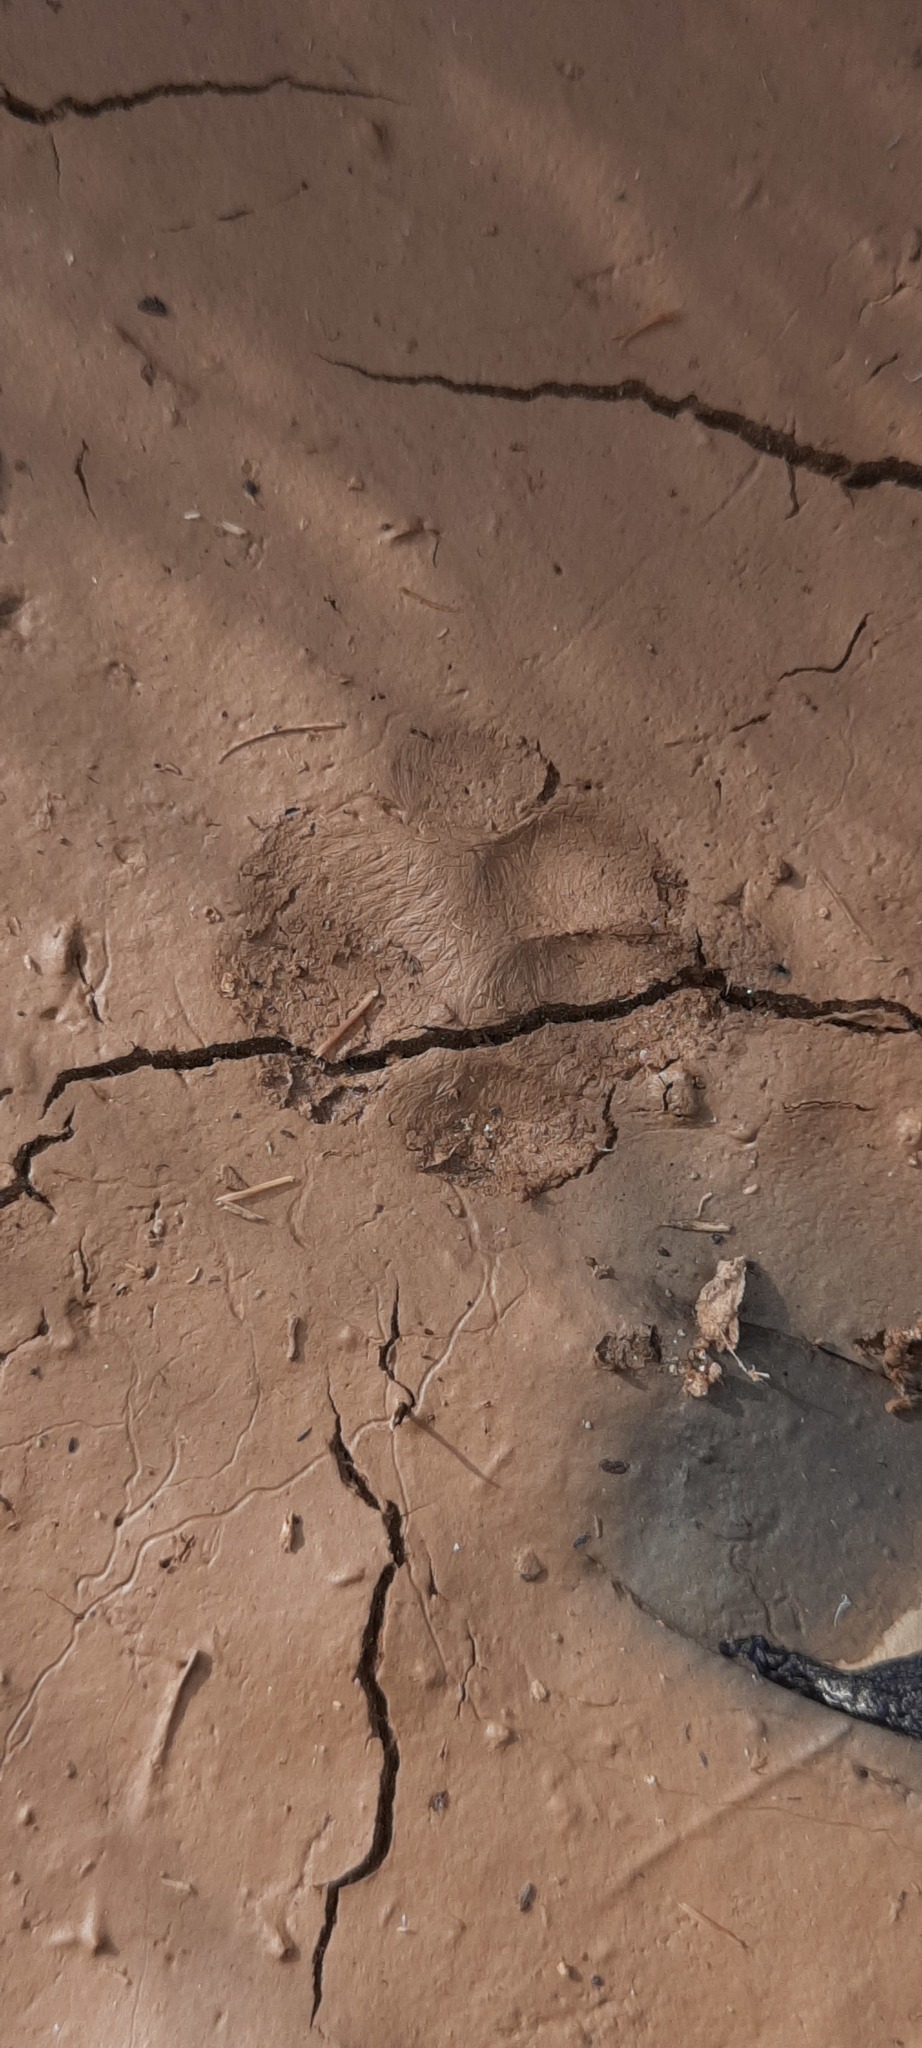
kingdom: Animalia
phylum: Chordata
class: Mammalia
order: Carnivora
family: Felidae
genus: Felis
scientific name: Felis catus
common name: Domestic cat
